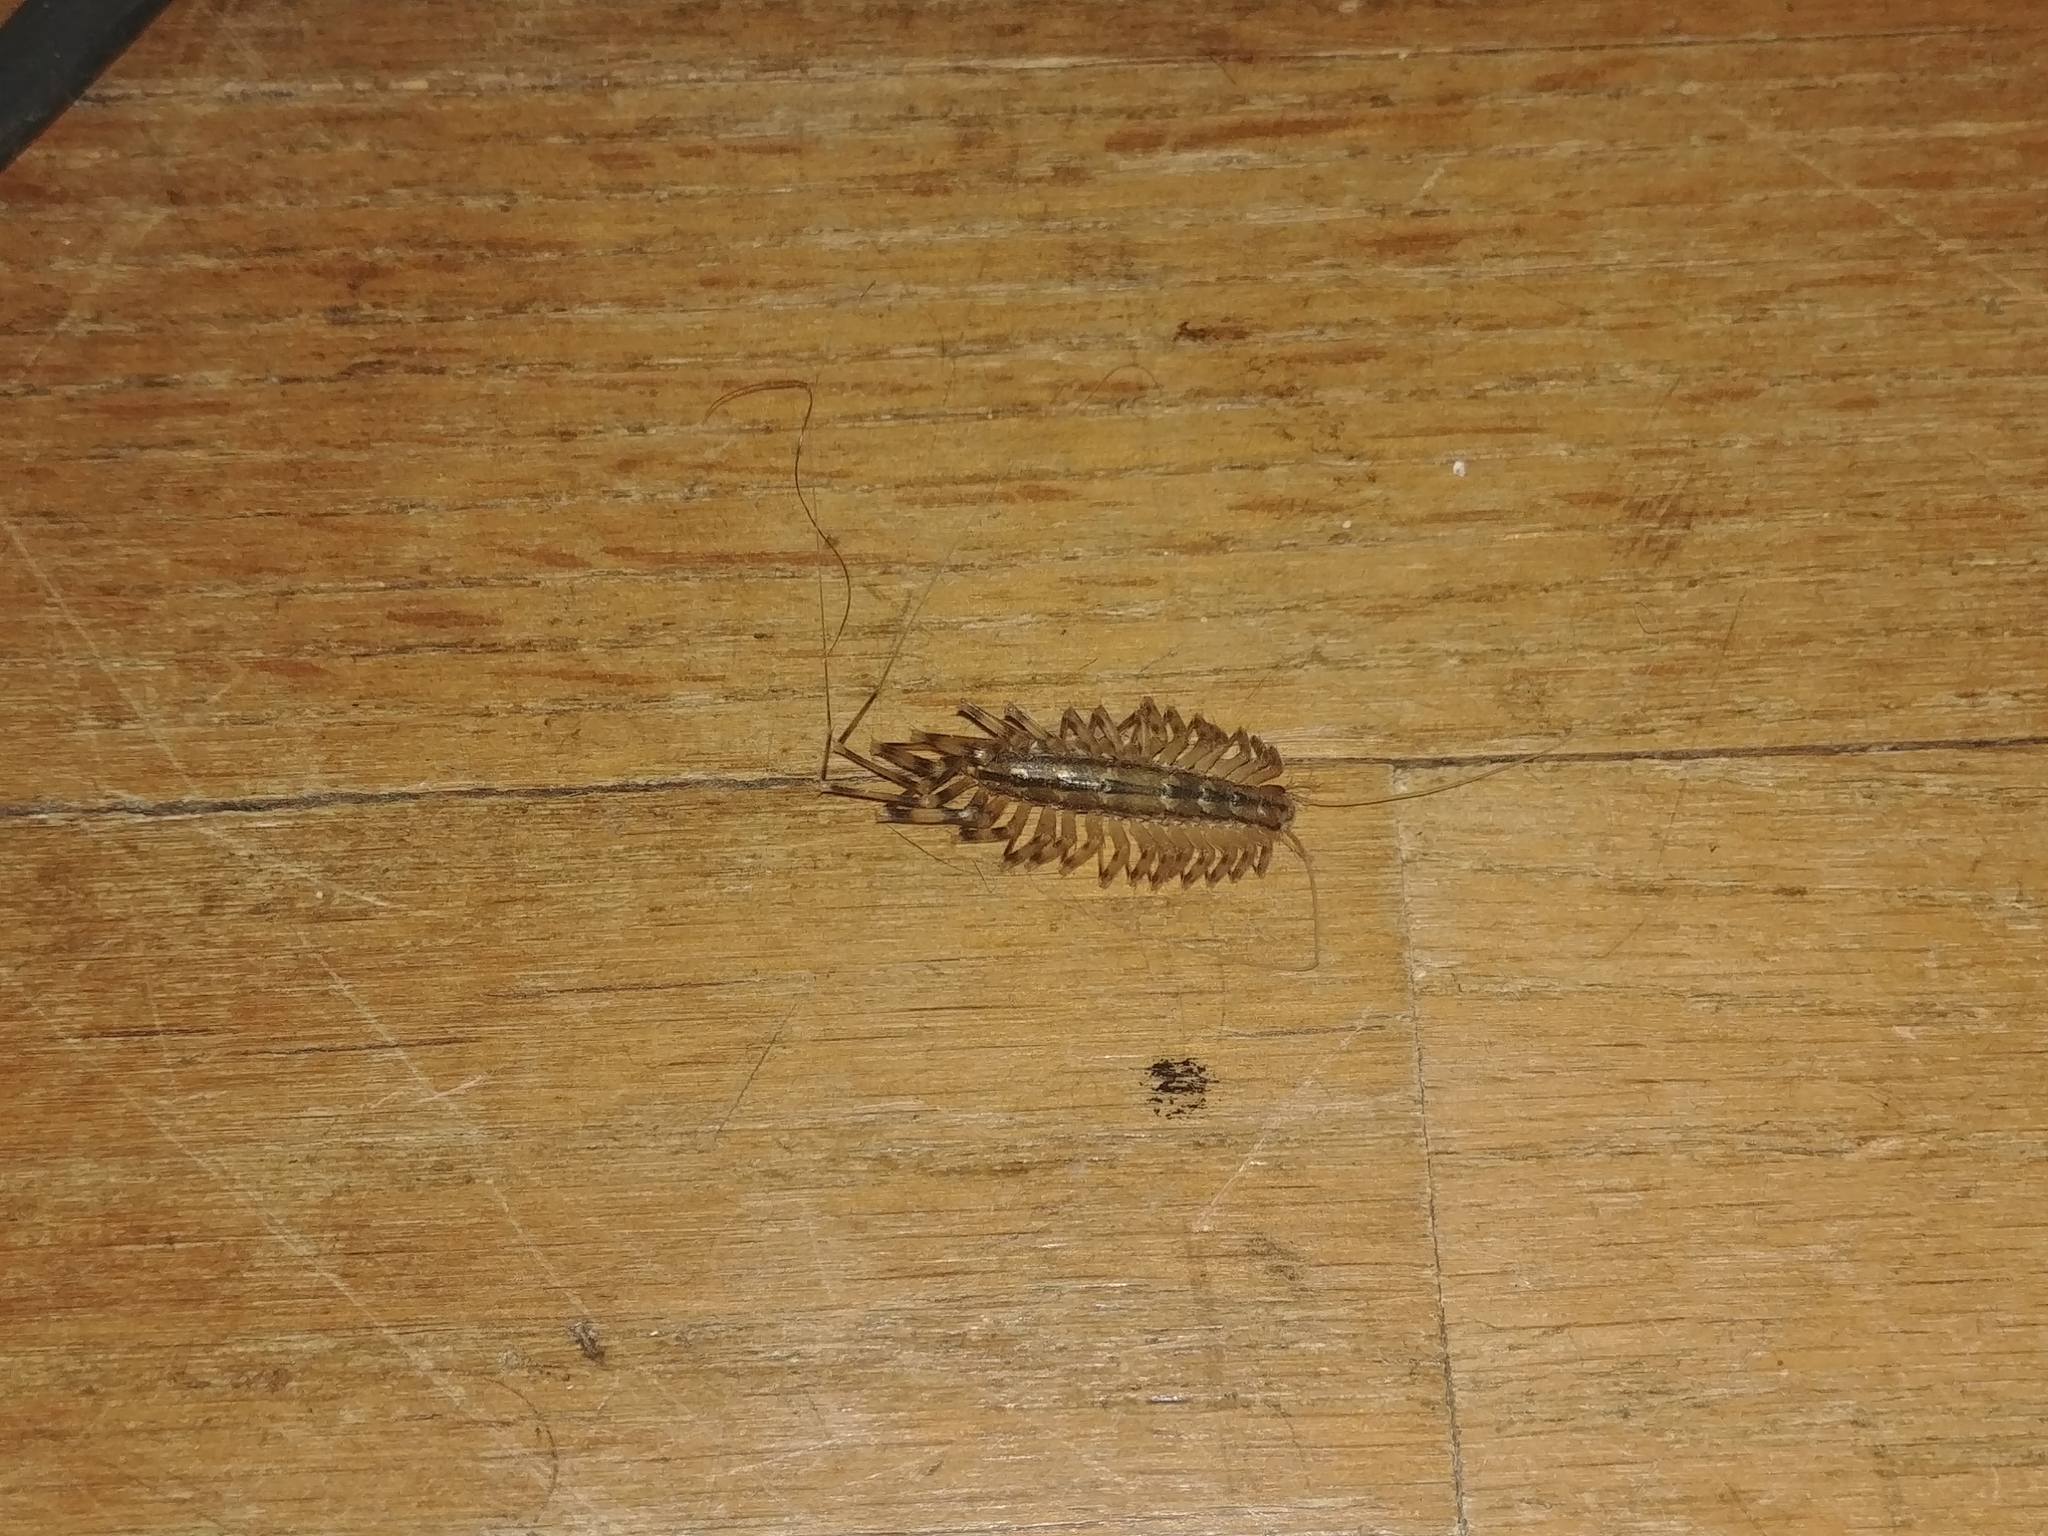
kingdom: Animalia
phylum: Arthropoda
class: Chilopoda
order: Scutigeromorpha
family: Scutigeridae
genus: Scutigera
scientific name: Scutigera coleoptrata
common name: House centipede
